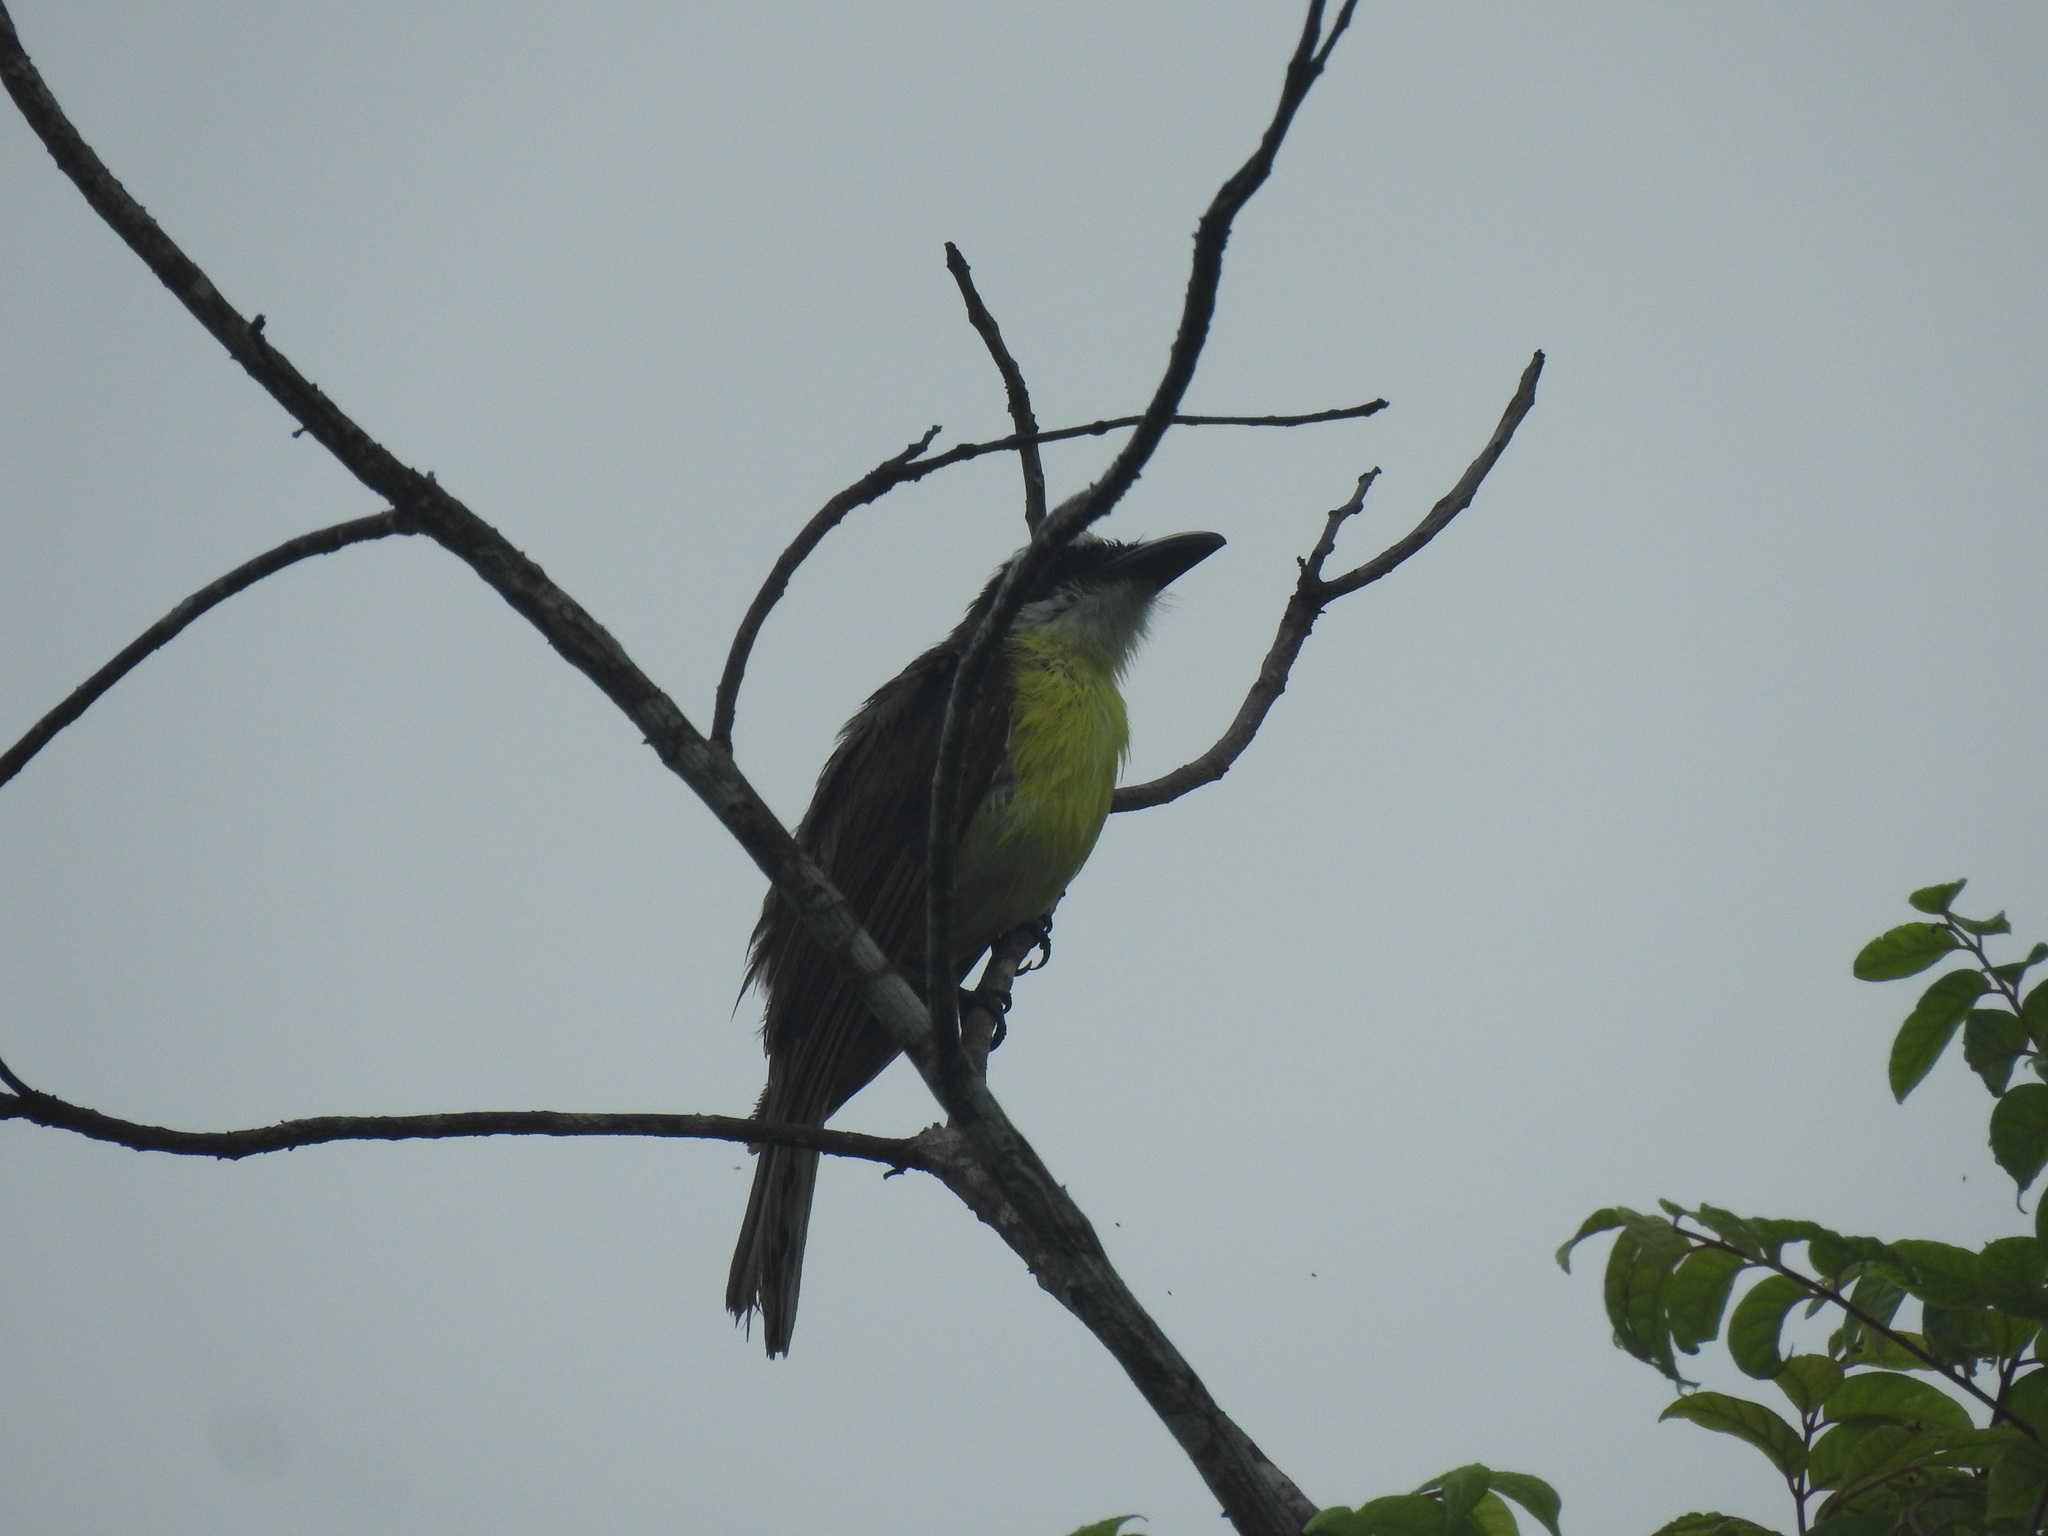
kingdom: Animalia
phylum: Chordata
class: Aves
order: Passeriformes
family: Tyrannidae
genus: Megarynchus
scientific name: Megarynchus pitangua
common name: Boat-billed flycatcher
